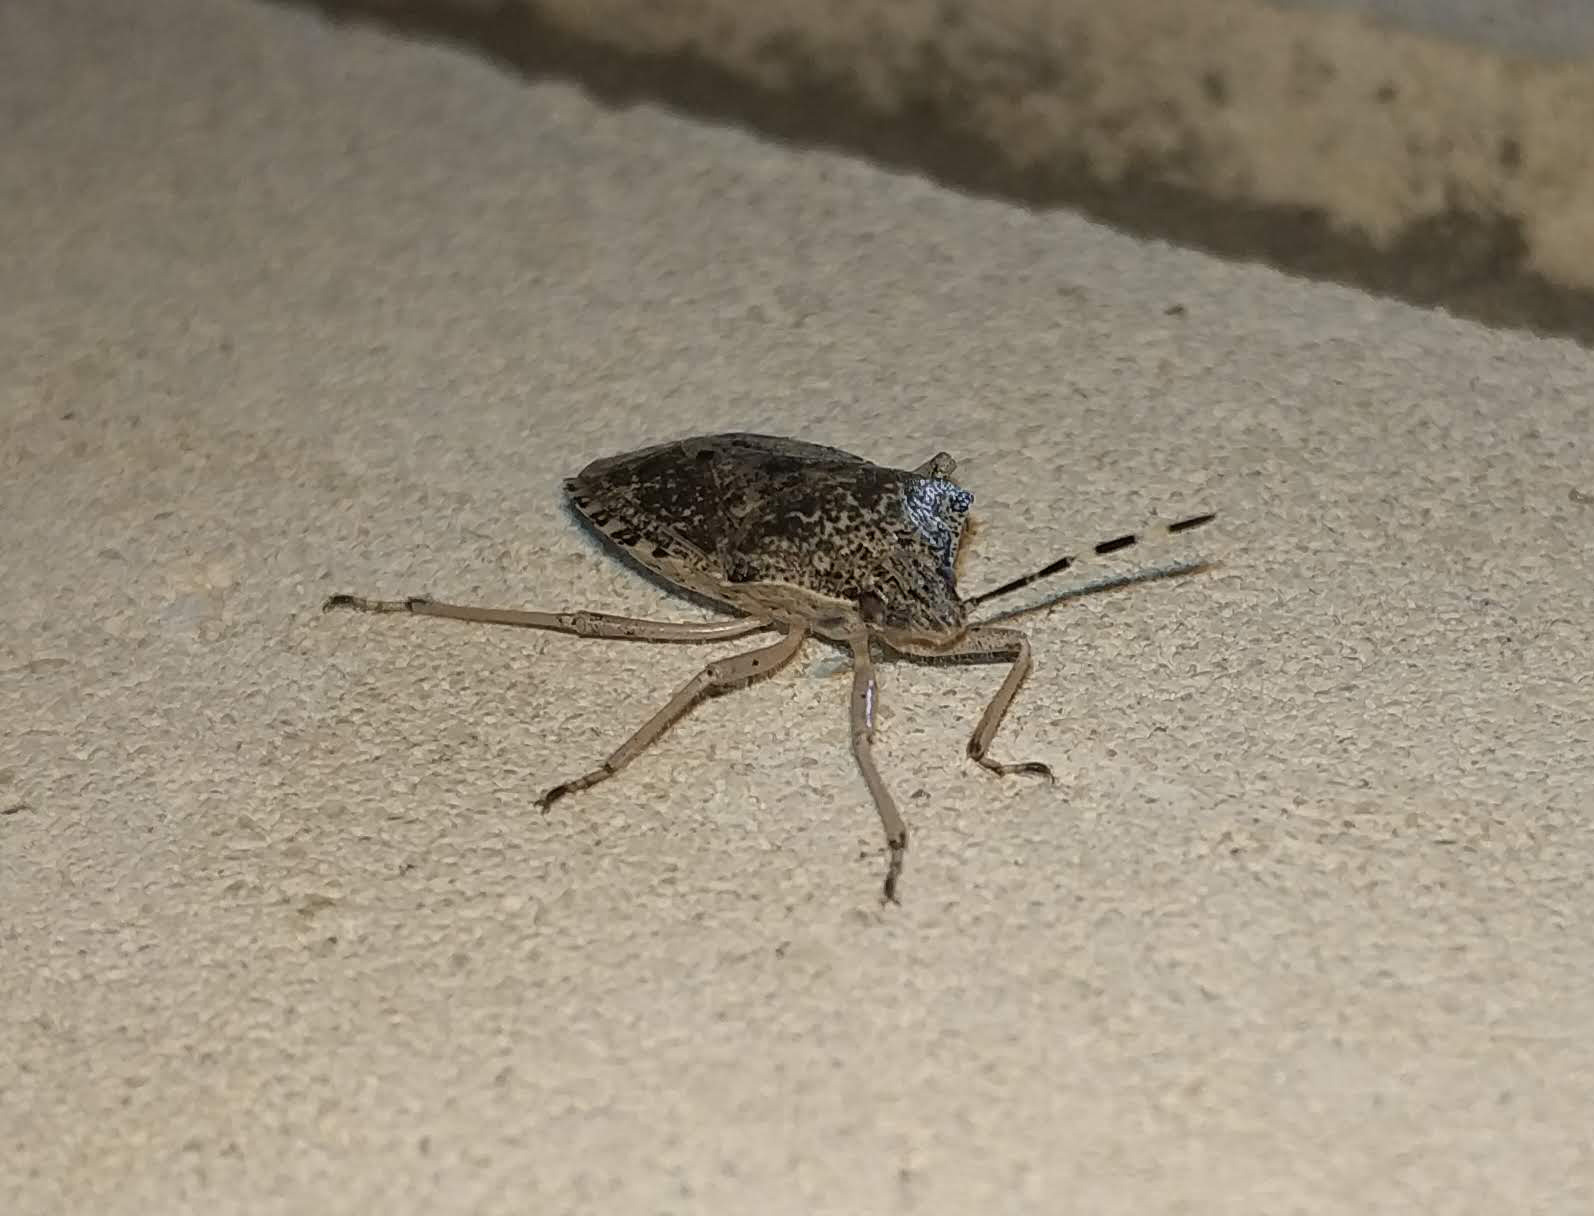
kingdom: Animalia
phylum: Arthropoda
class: Insecta
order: Hemiptera
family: Pentatomidae
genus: Rhaphigaster
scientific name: Rhaphigaster nebulosa
